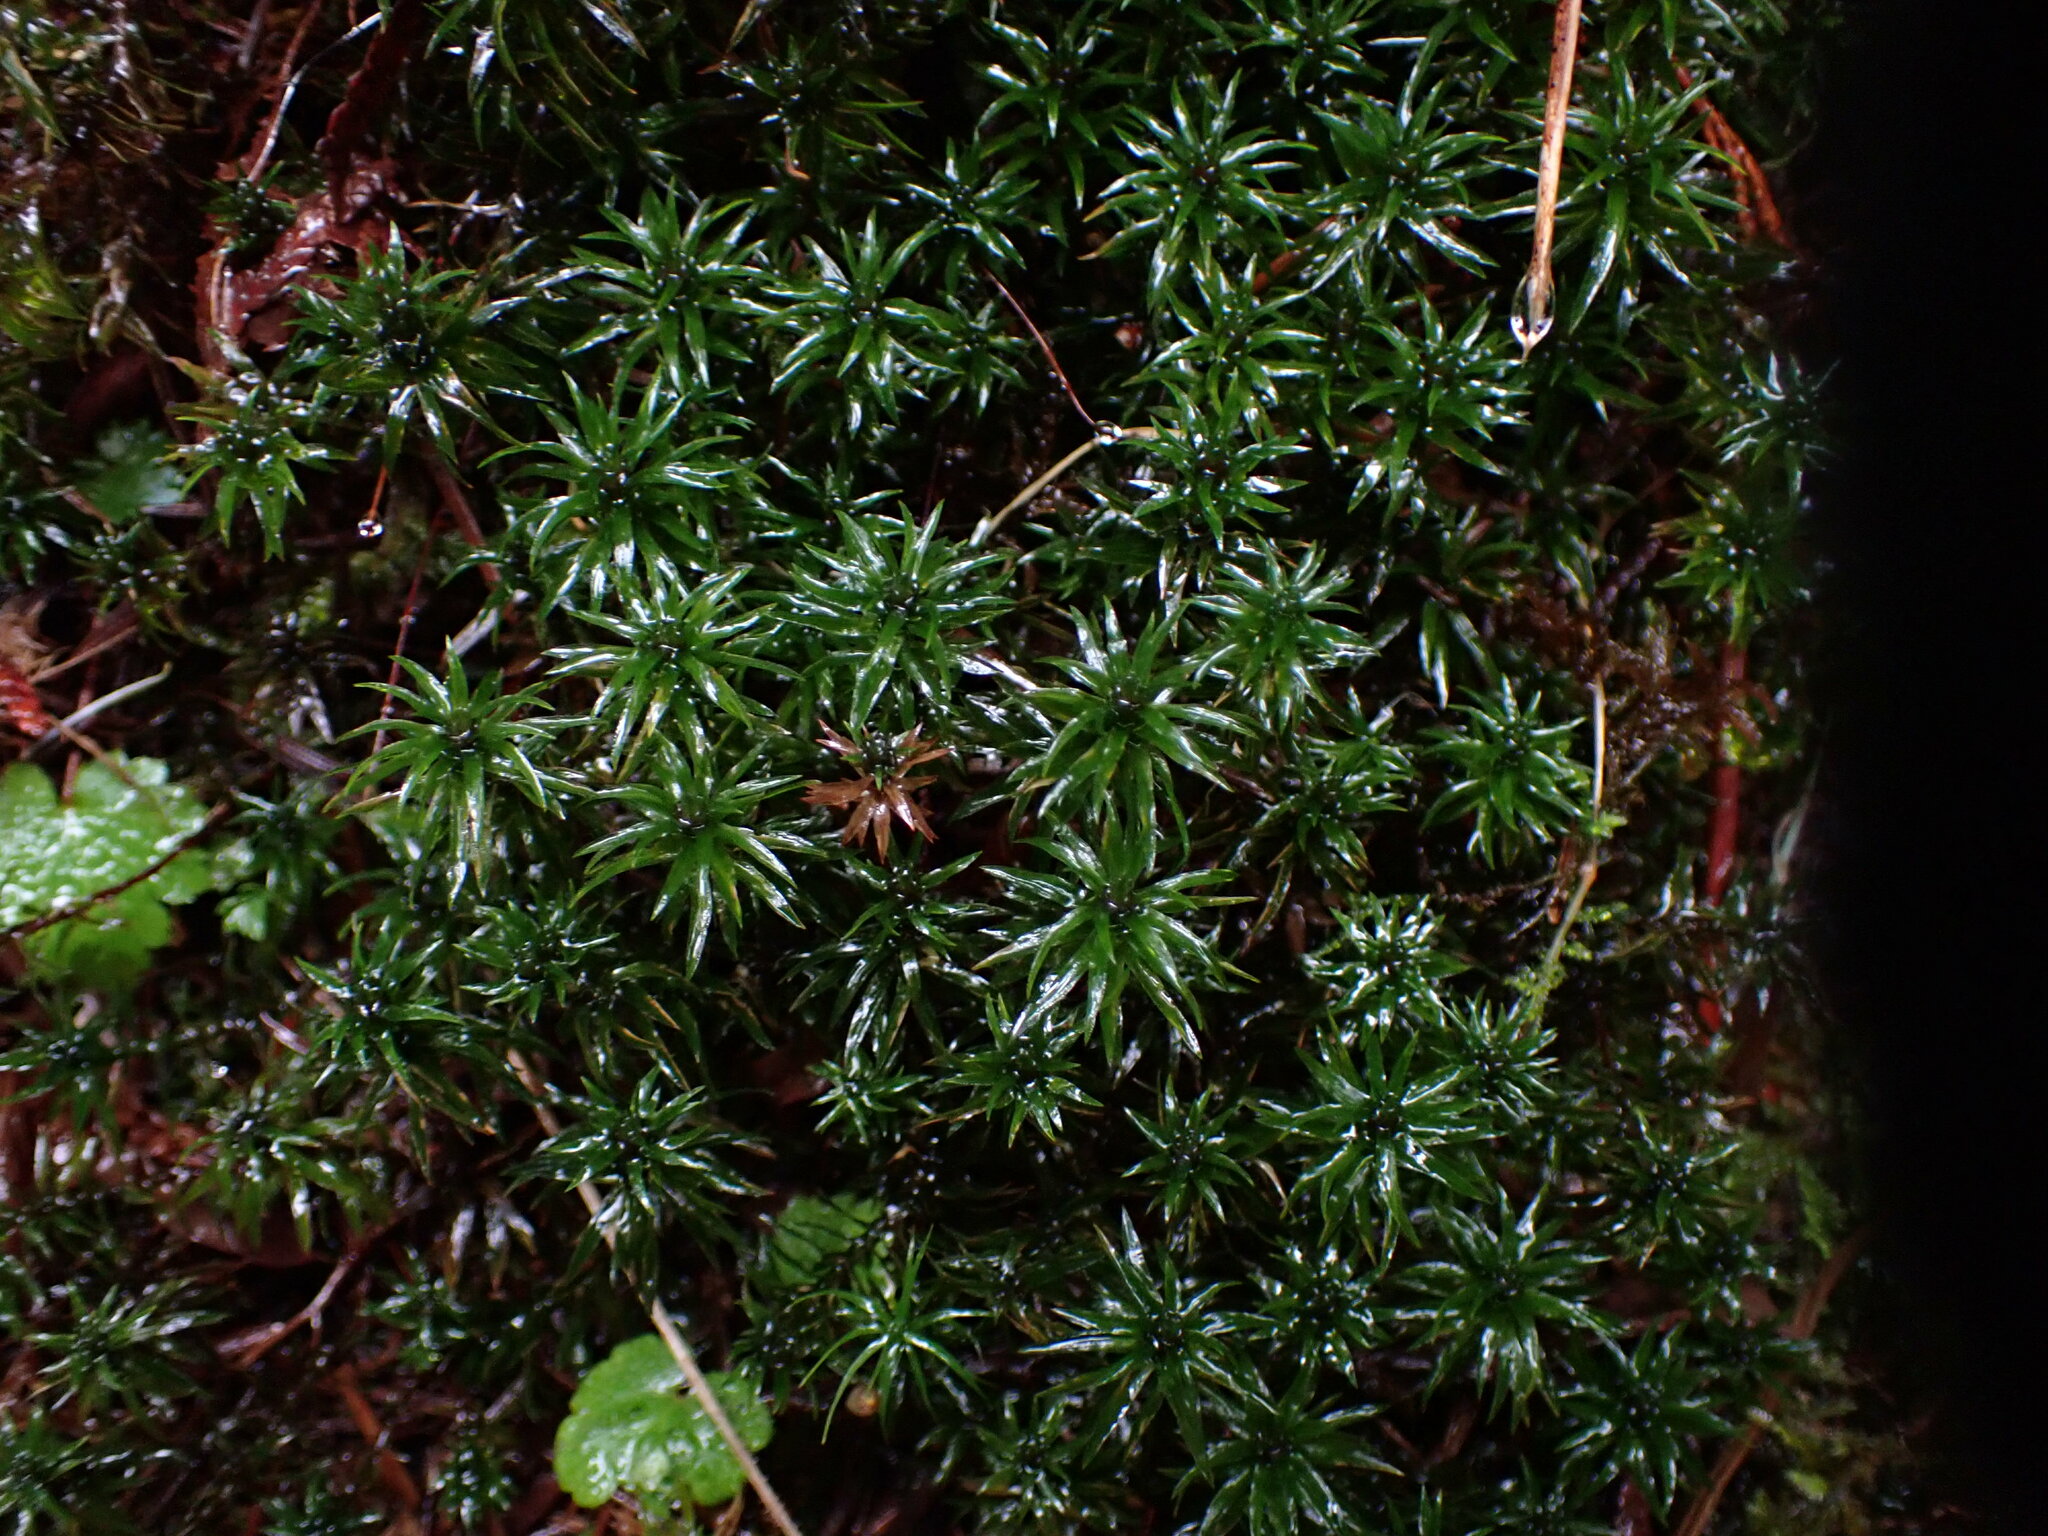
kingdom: Plantae
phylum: Bryophyta
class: Polytrichopsida
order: Polytrichales
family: Polytrichaceae
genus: Pogonatum
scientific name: Pogonatum contortum
